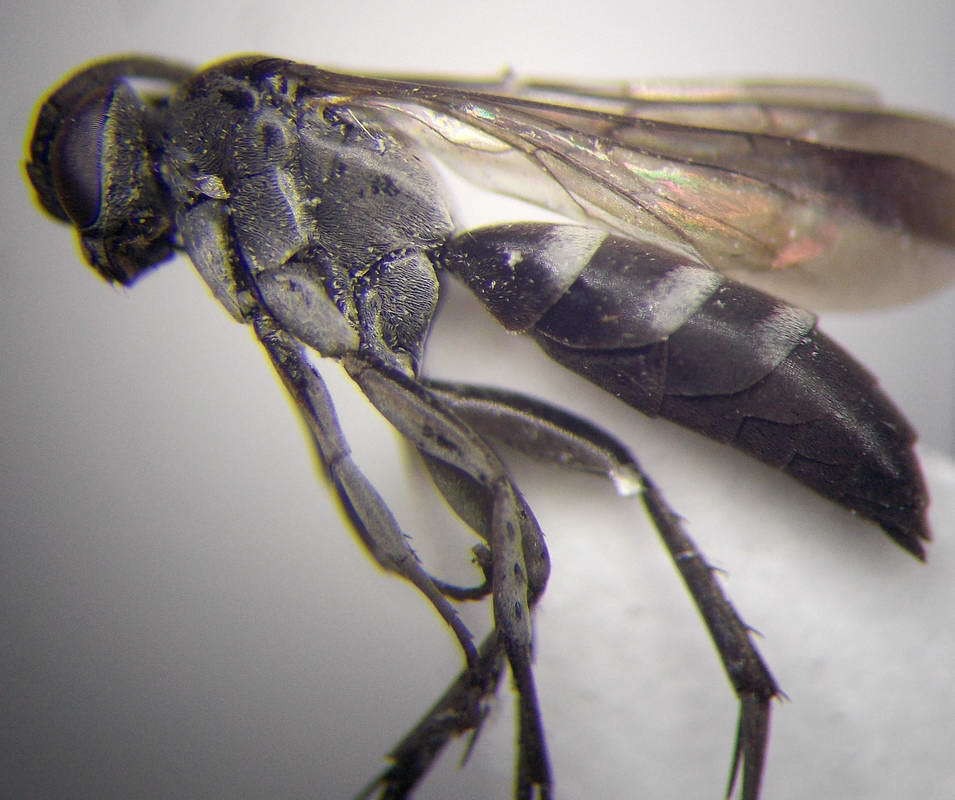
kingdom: Animalia
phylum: Arthropoda
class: Insecta
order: Hymenoptera
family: Pompilidae
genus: Aporinellus
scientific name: Aporinellus sexmaculatus
